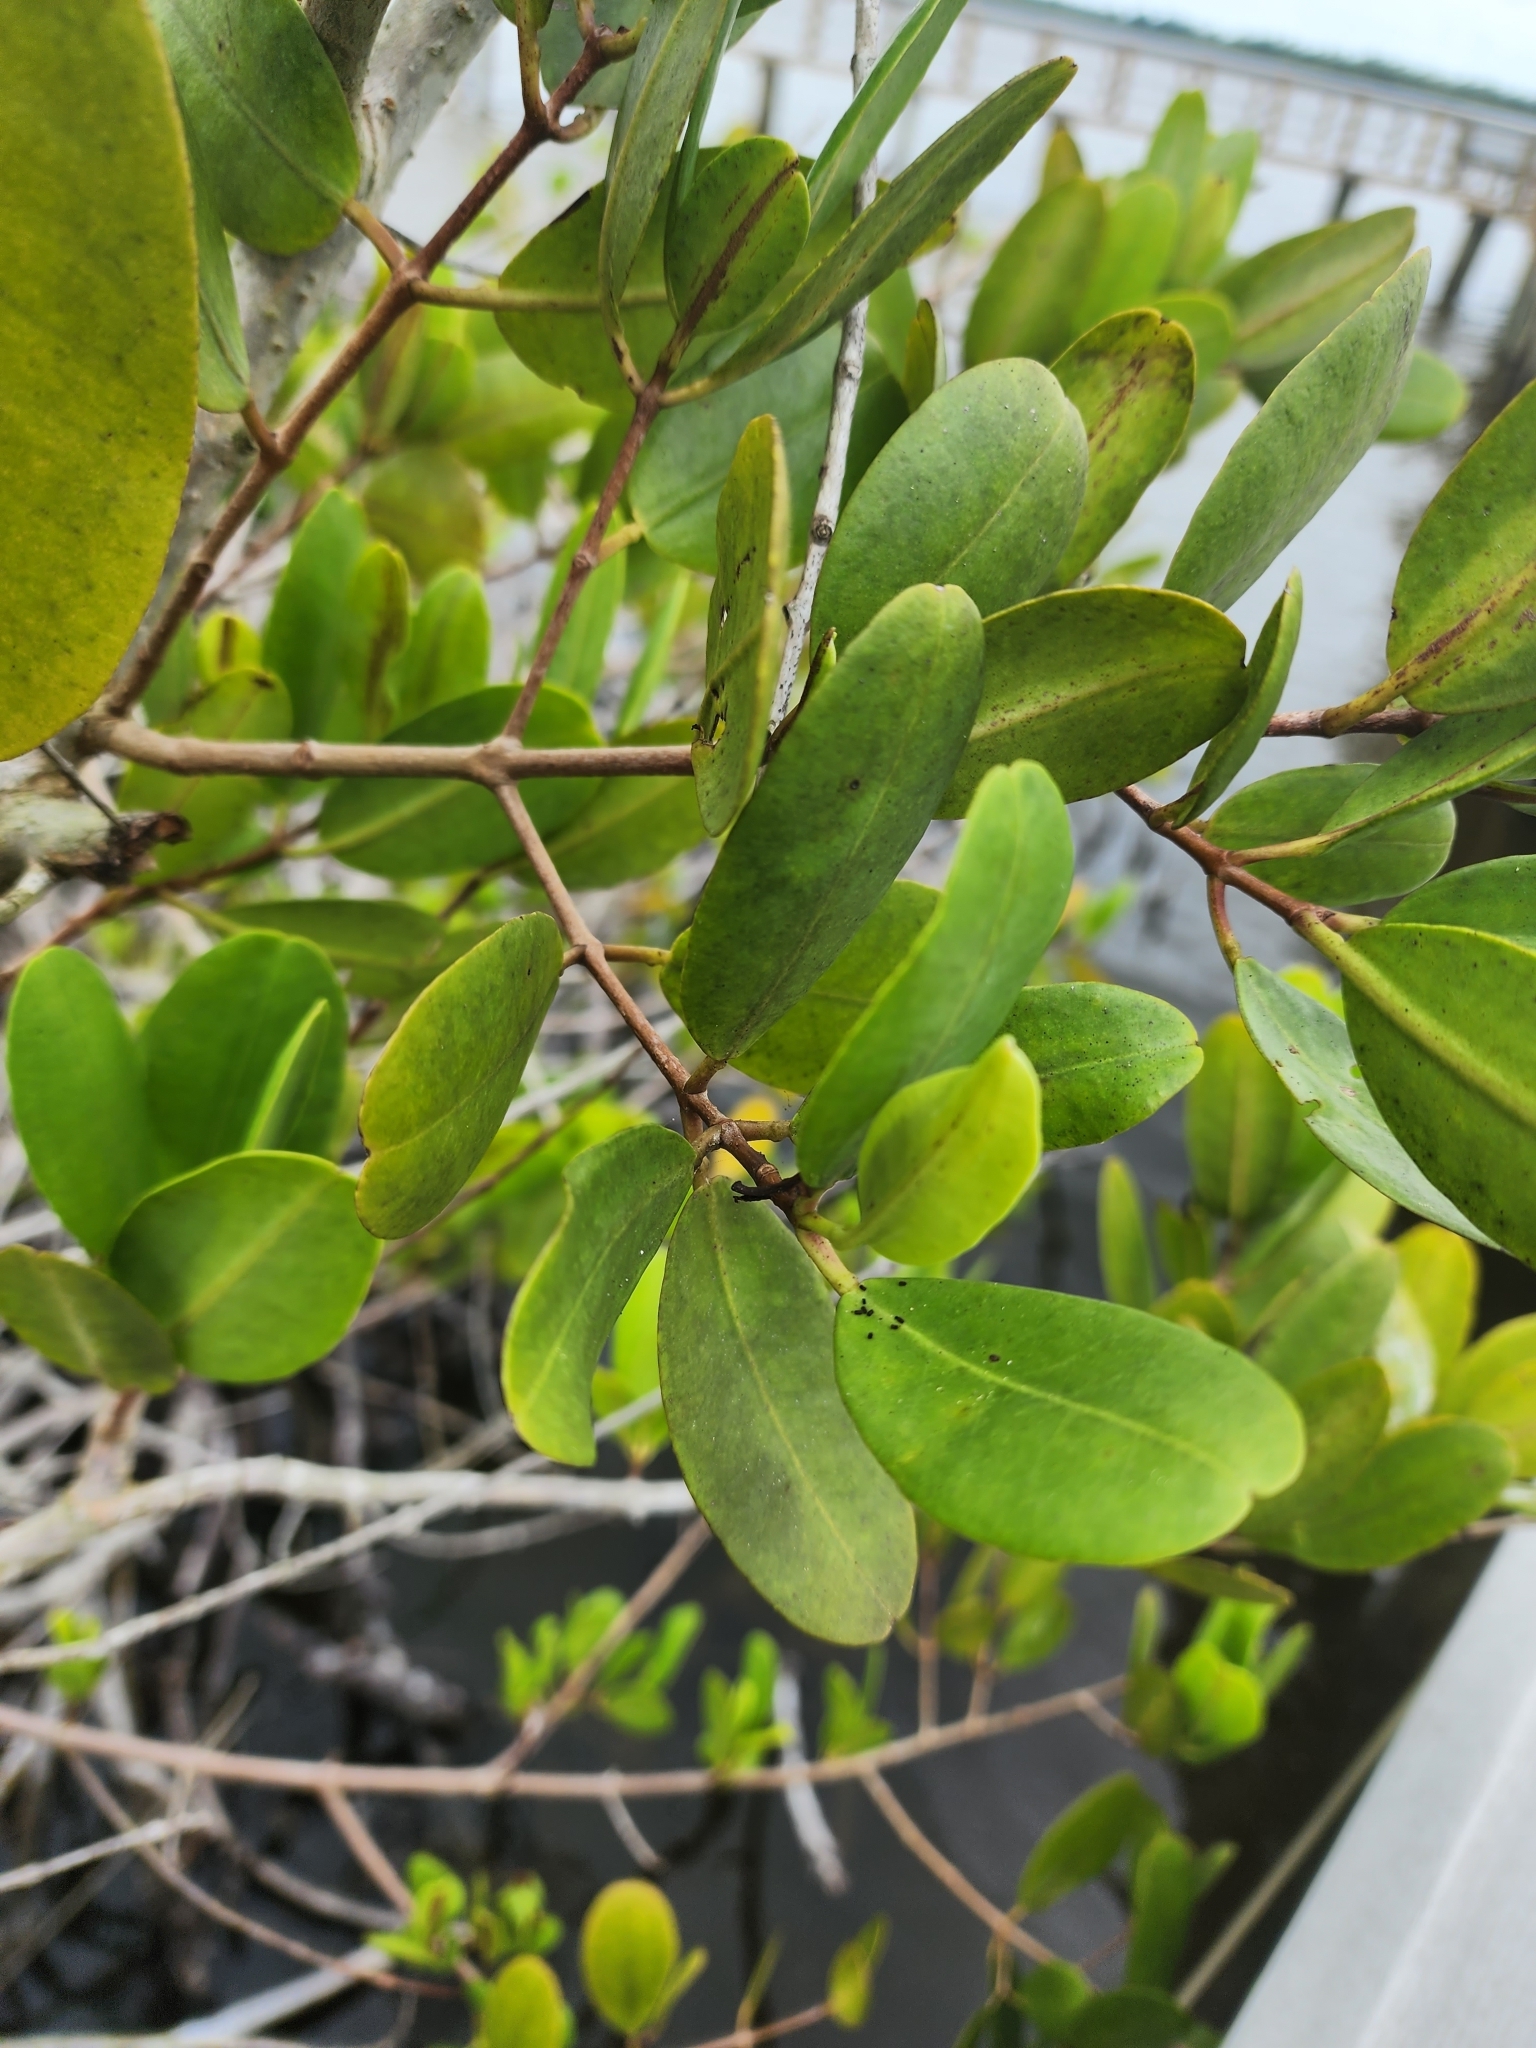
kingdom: Plantae
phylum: Tracheophyta
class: Magnoliopsida
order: Myrtales
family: Combretaceae
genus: Laguncularia
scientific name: Laguncularia racemosa
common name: White mangrove
